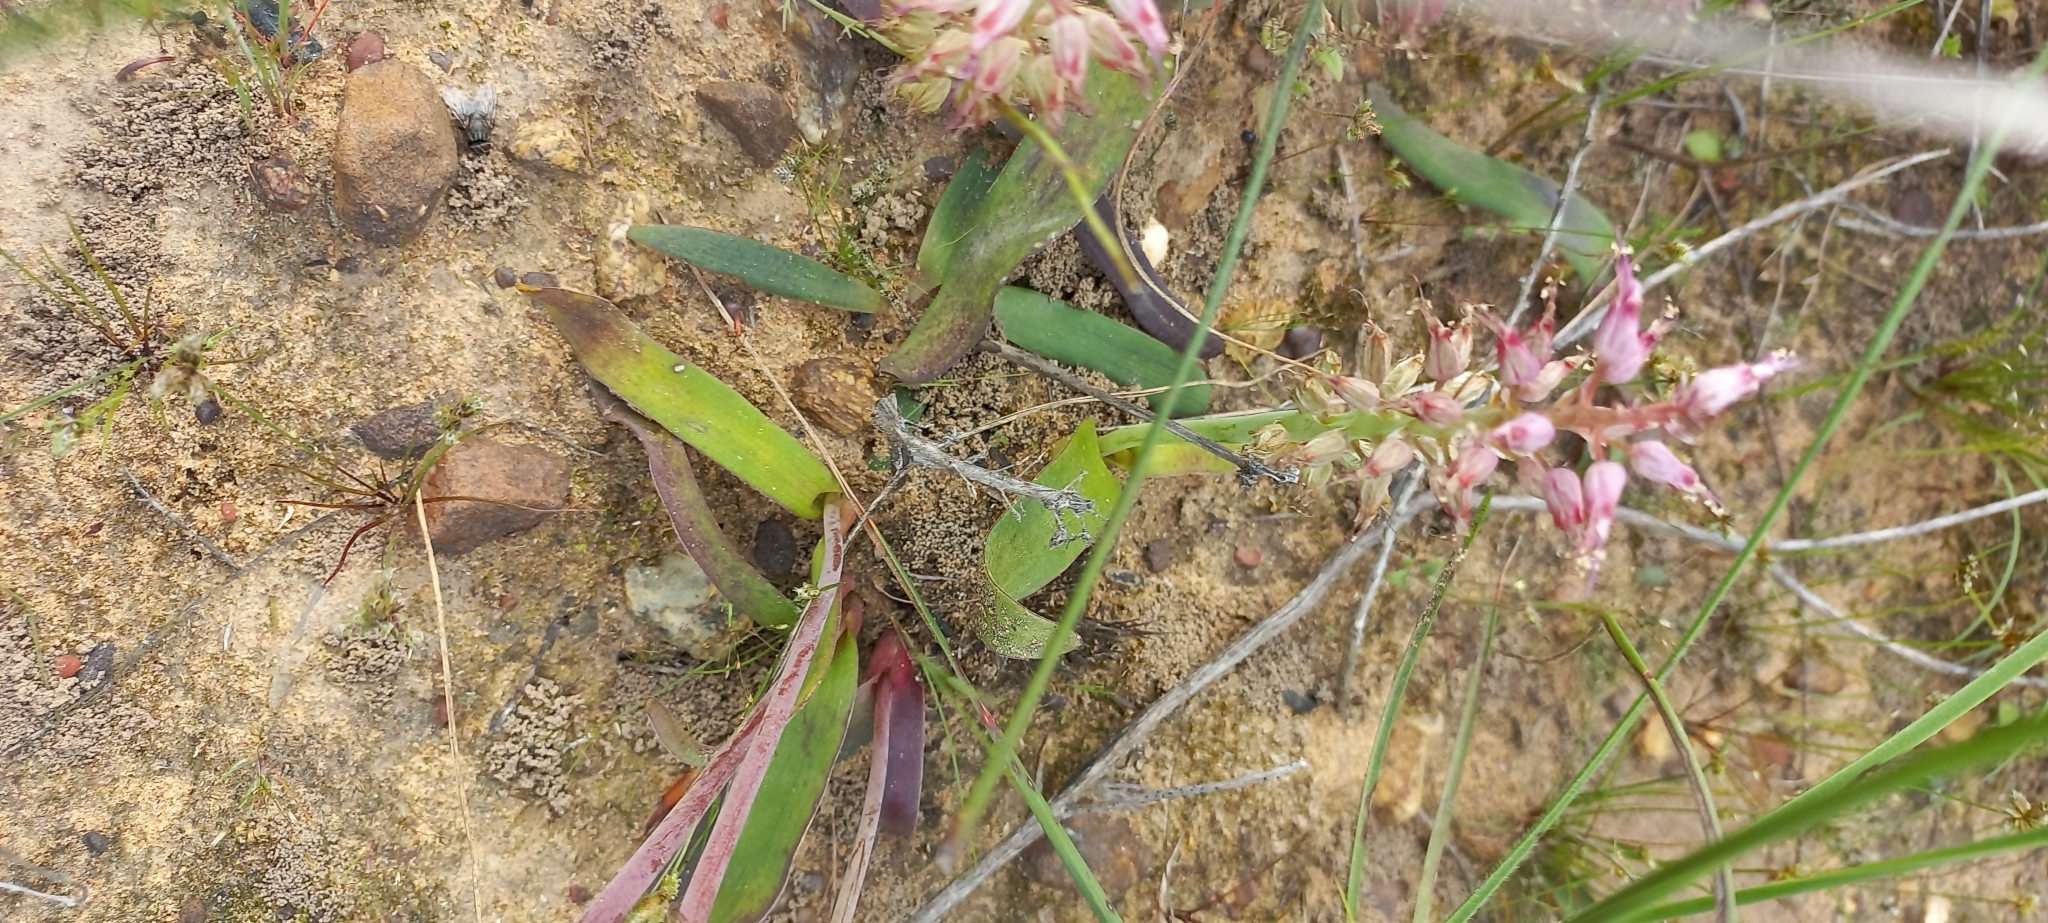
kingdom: Plantae
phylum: Tracheophyta
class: Liliopsida
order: Asparagales
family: Asparagaceae
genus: Lachenalia
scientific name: Lachenalia stayneri
